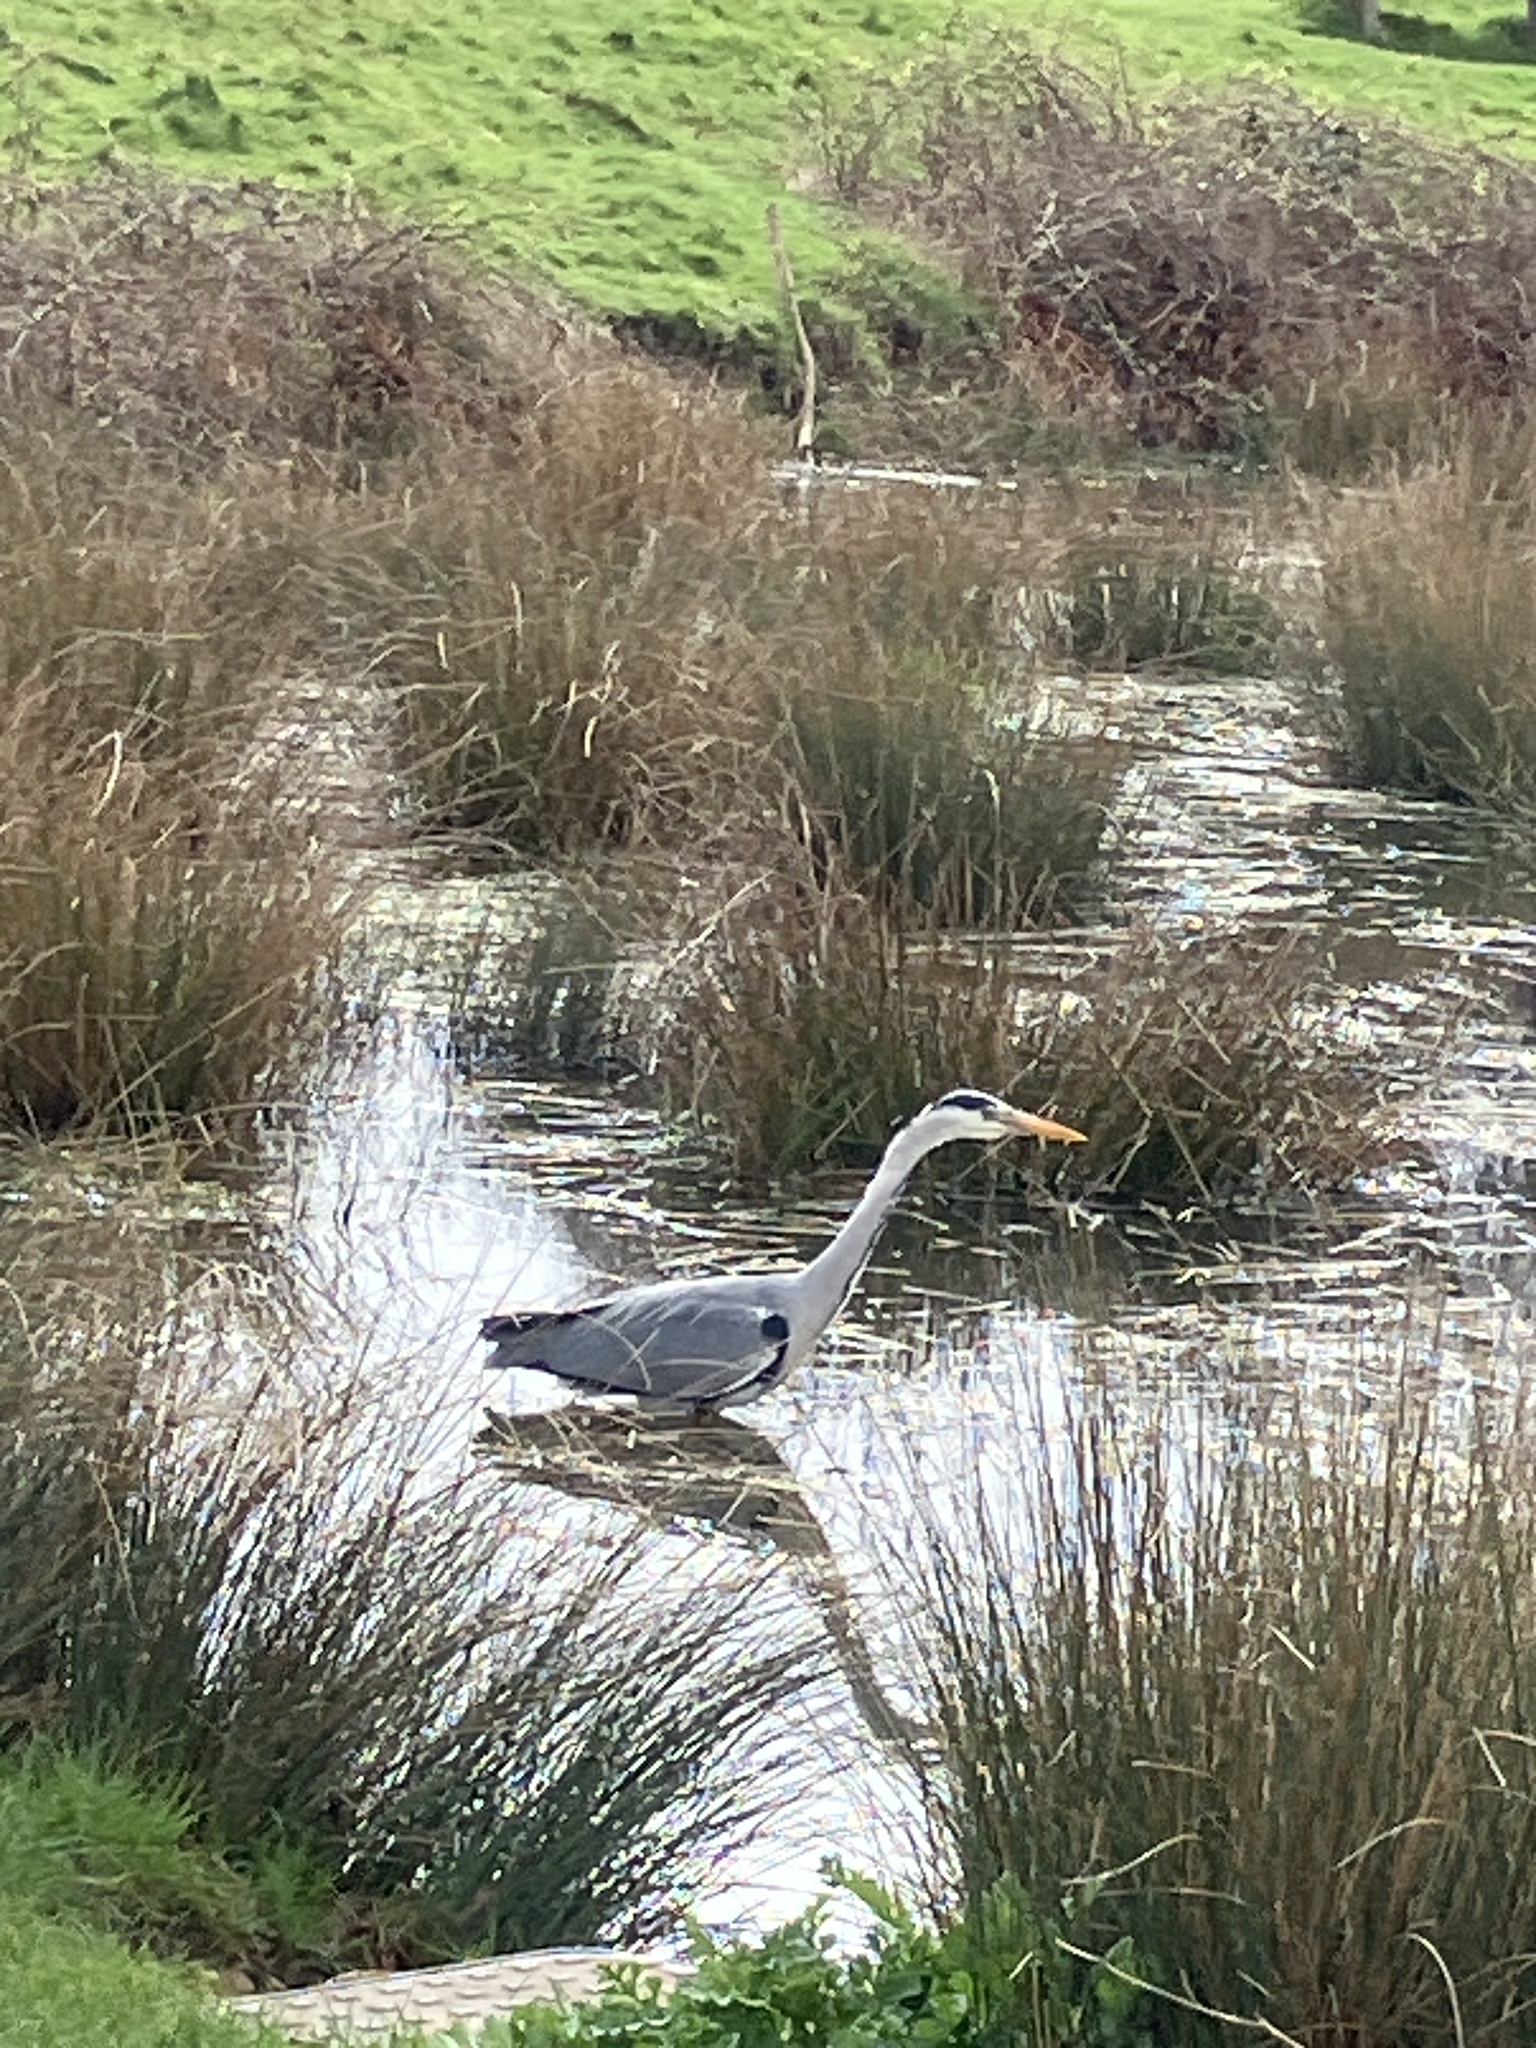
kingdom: Animalia
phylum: Chordata
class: Aves
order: Pelecaniformes
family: Ardeidae
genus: Ardea
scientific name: Ardea cinerea
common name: Grey heron
